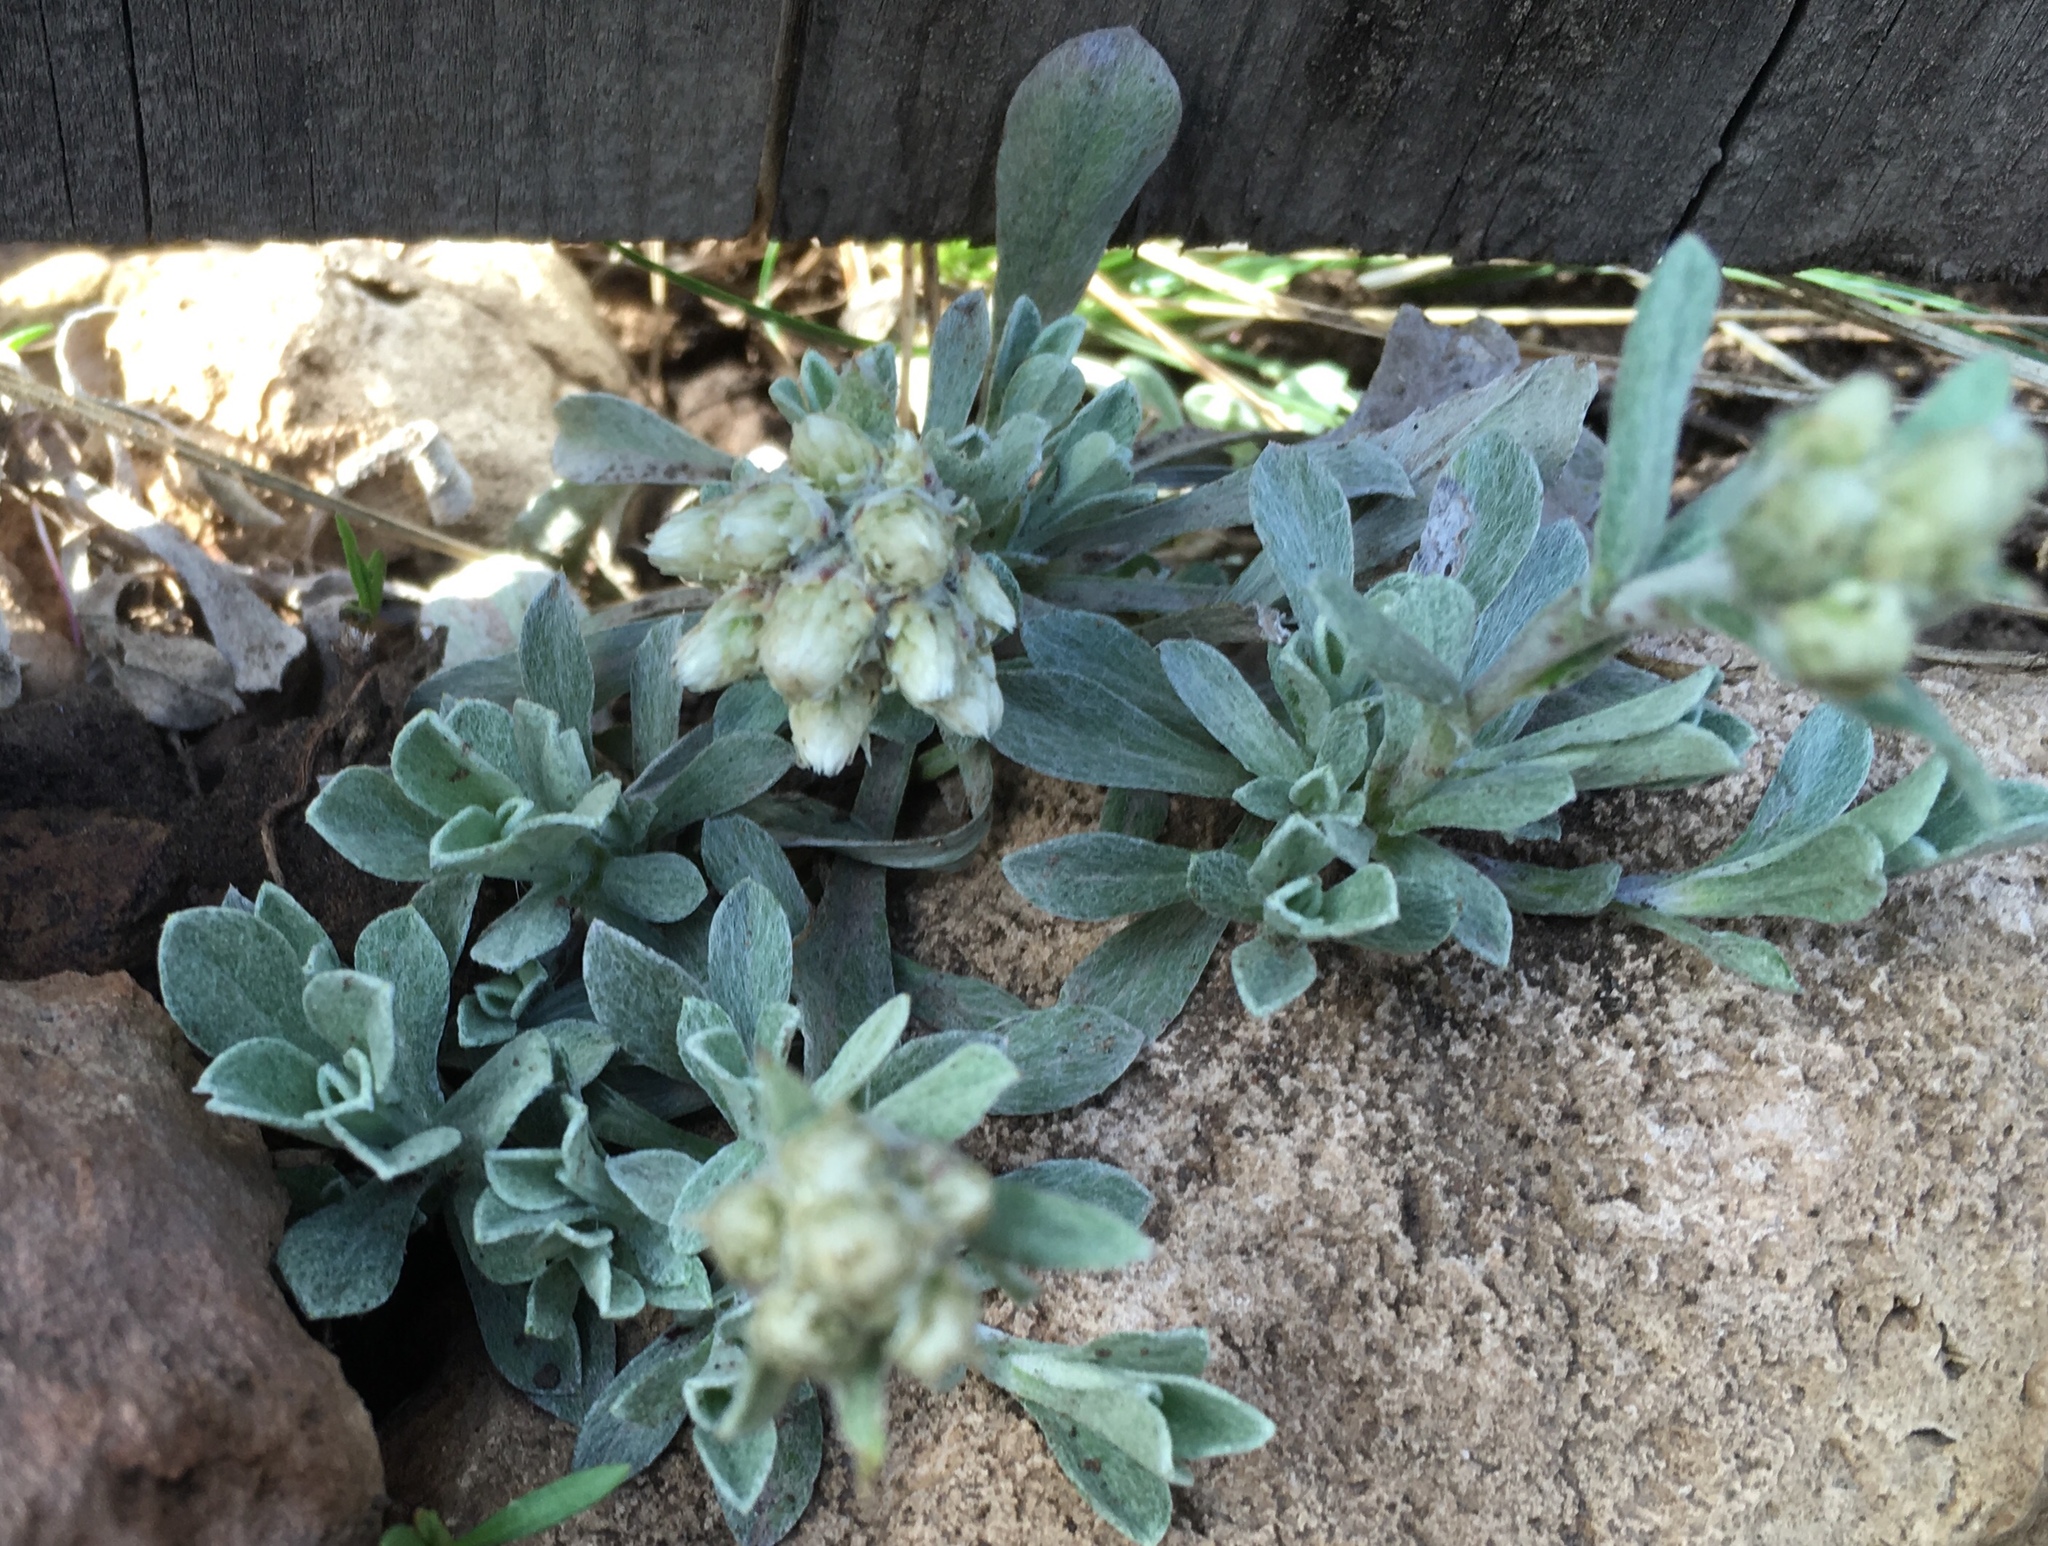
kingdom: Plantae
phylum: Tracheophyta
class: Magnoliopsida
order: Asterales
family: Asteraceae
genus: Antennaria
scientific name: Antennaria parvifolia
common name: Nuttall's pussytoes
